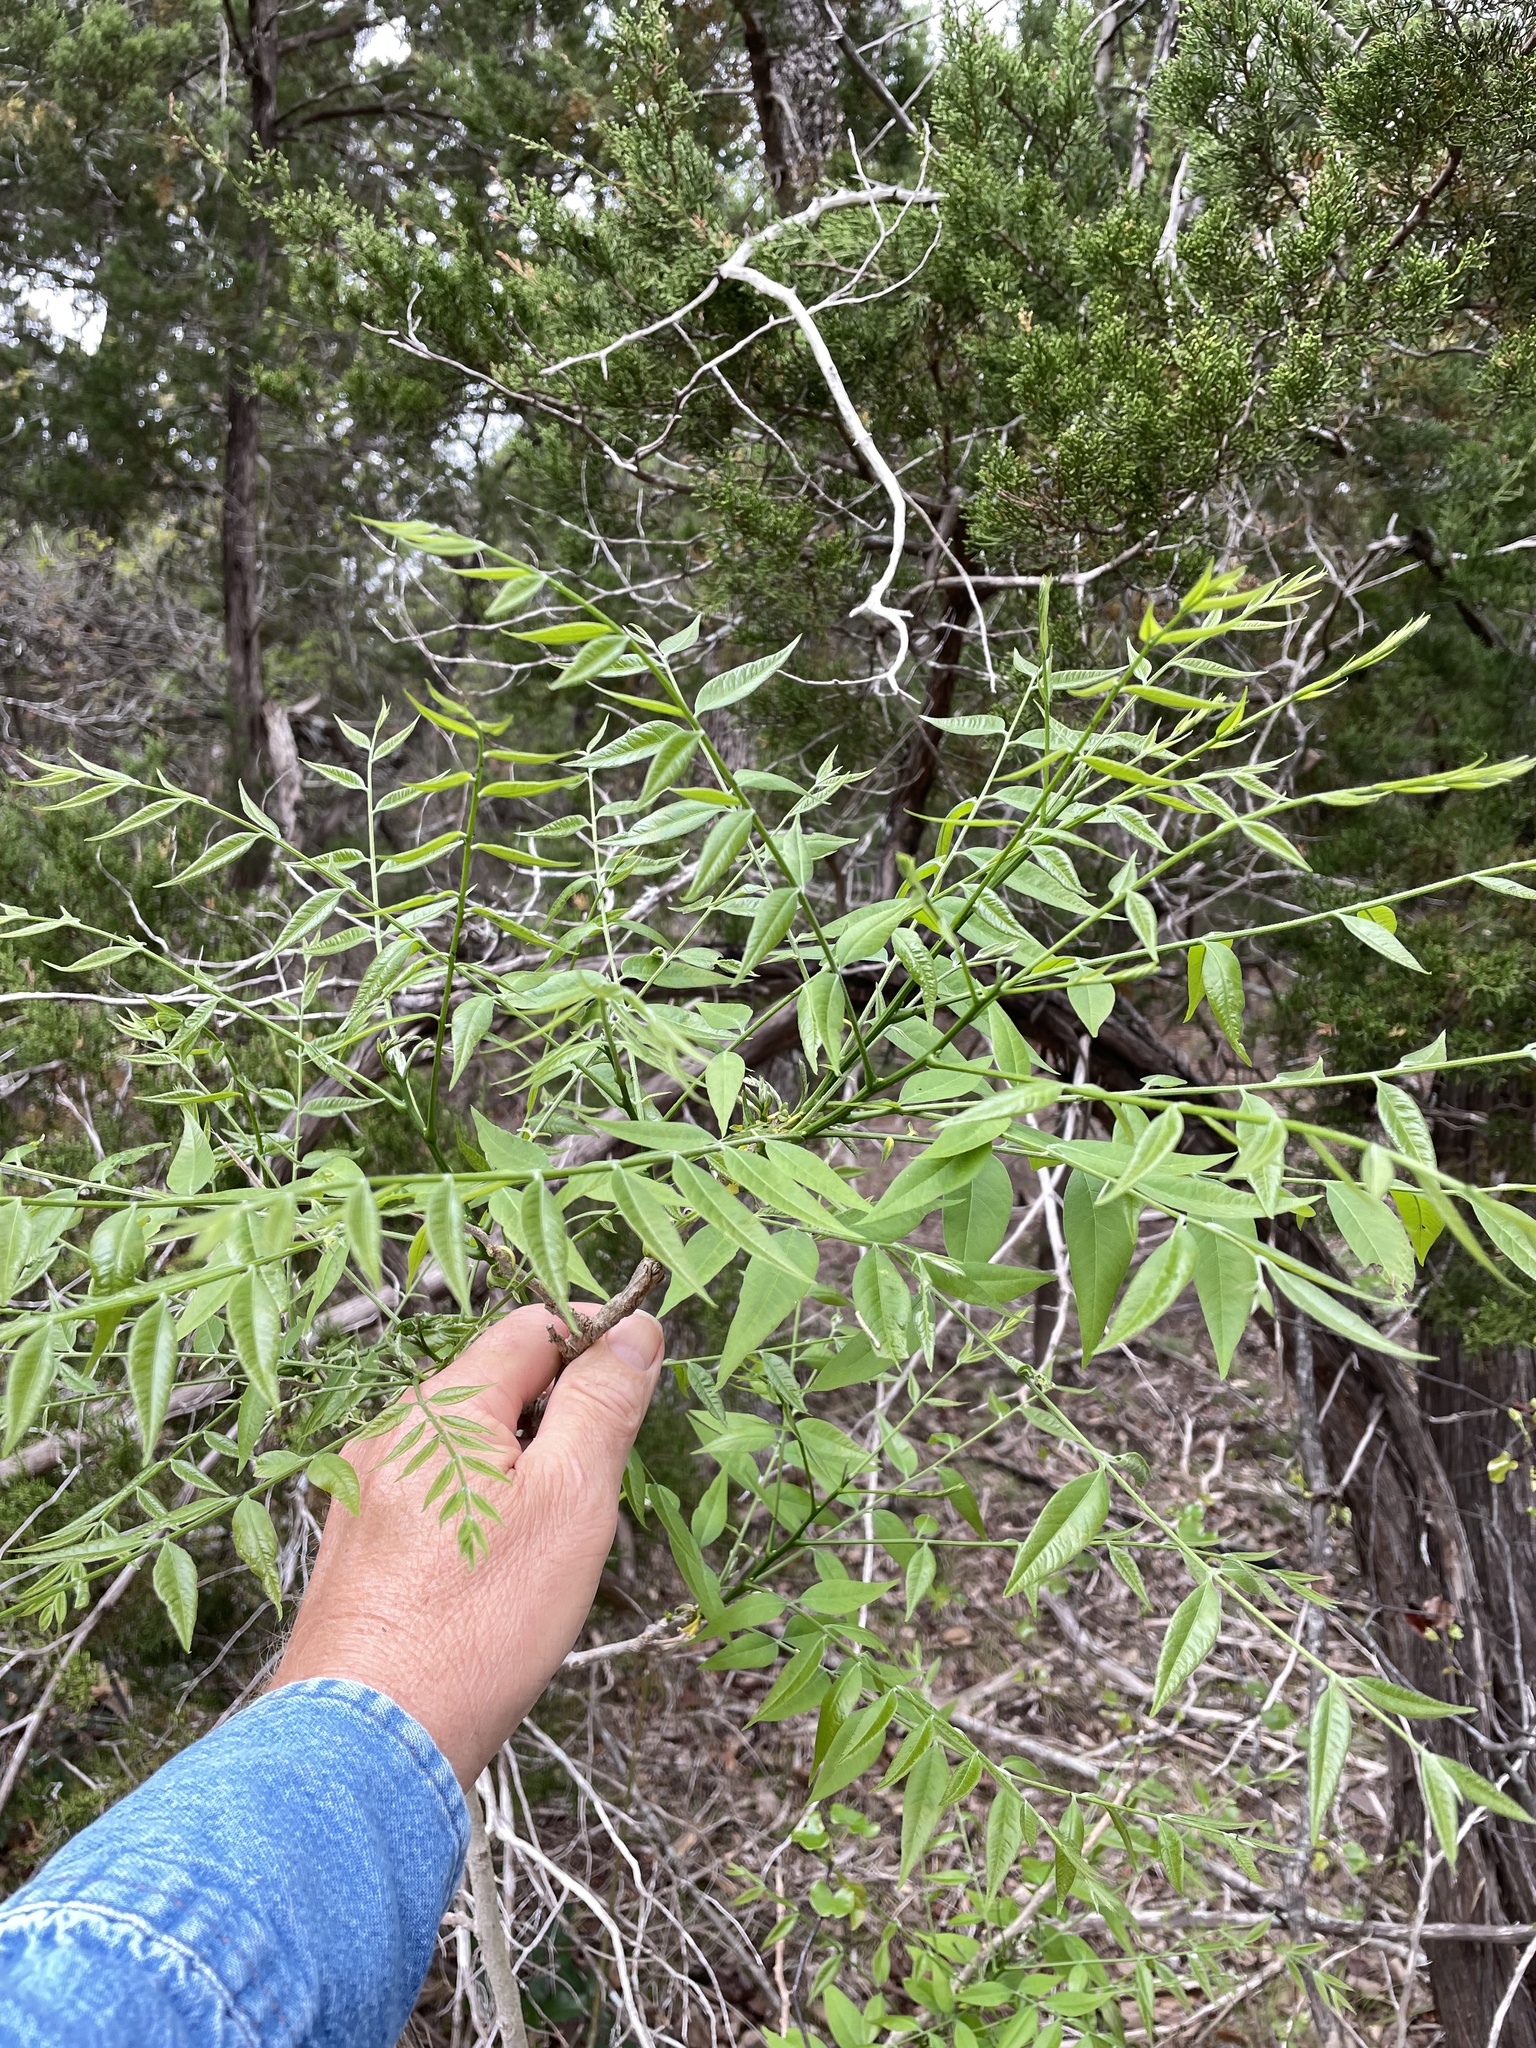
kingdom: Plantae
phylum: Tracheophyta
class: Magnoliopsida
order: Sapindales
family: Sapindaceae
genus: Sapindus
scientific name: Sapindus drummondii
